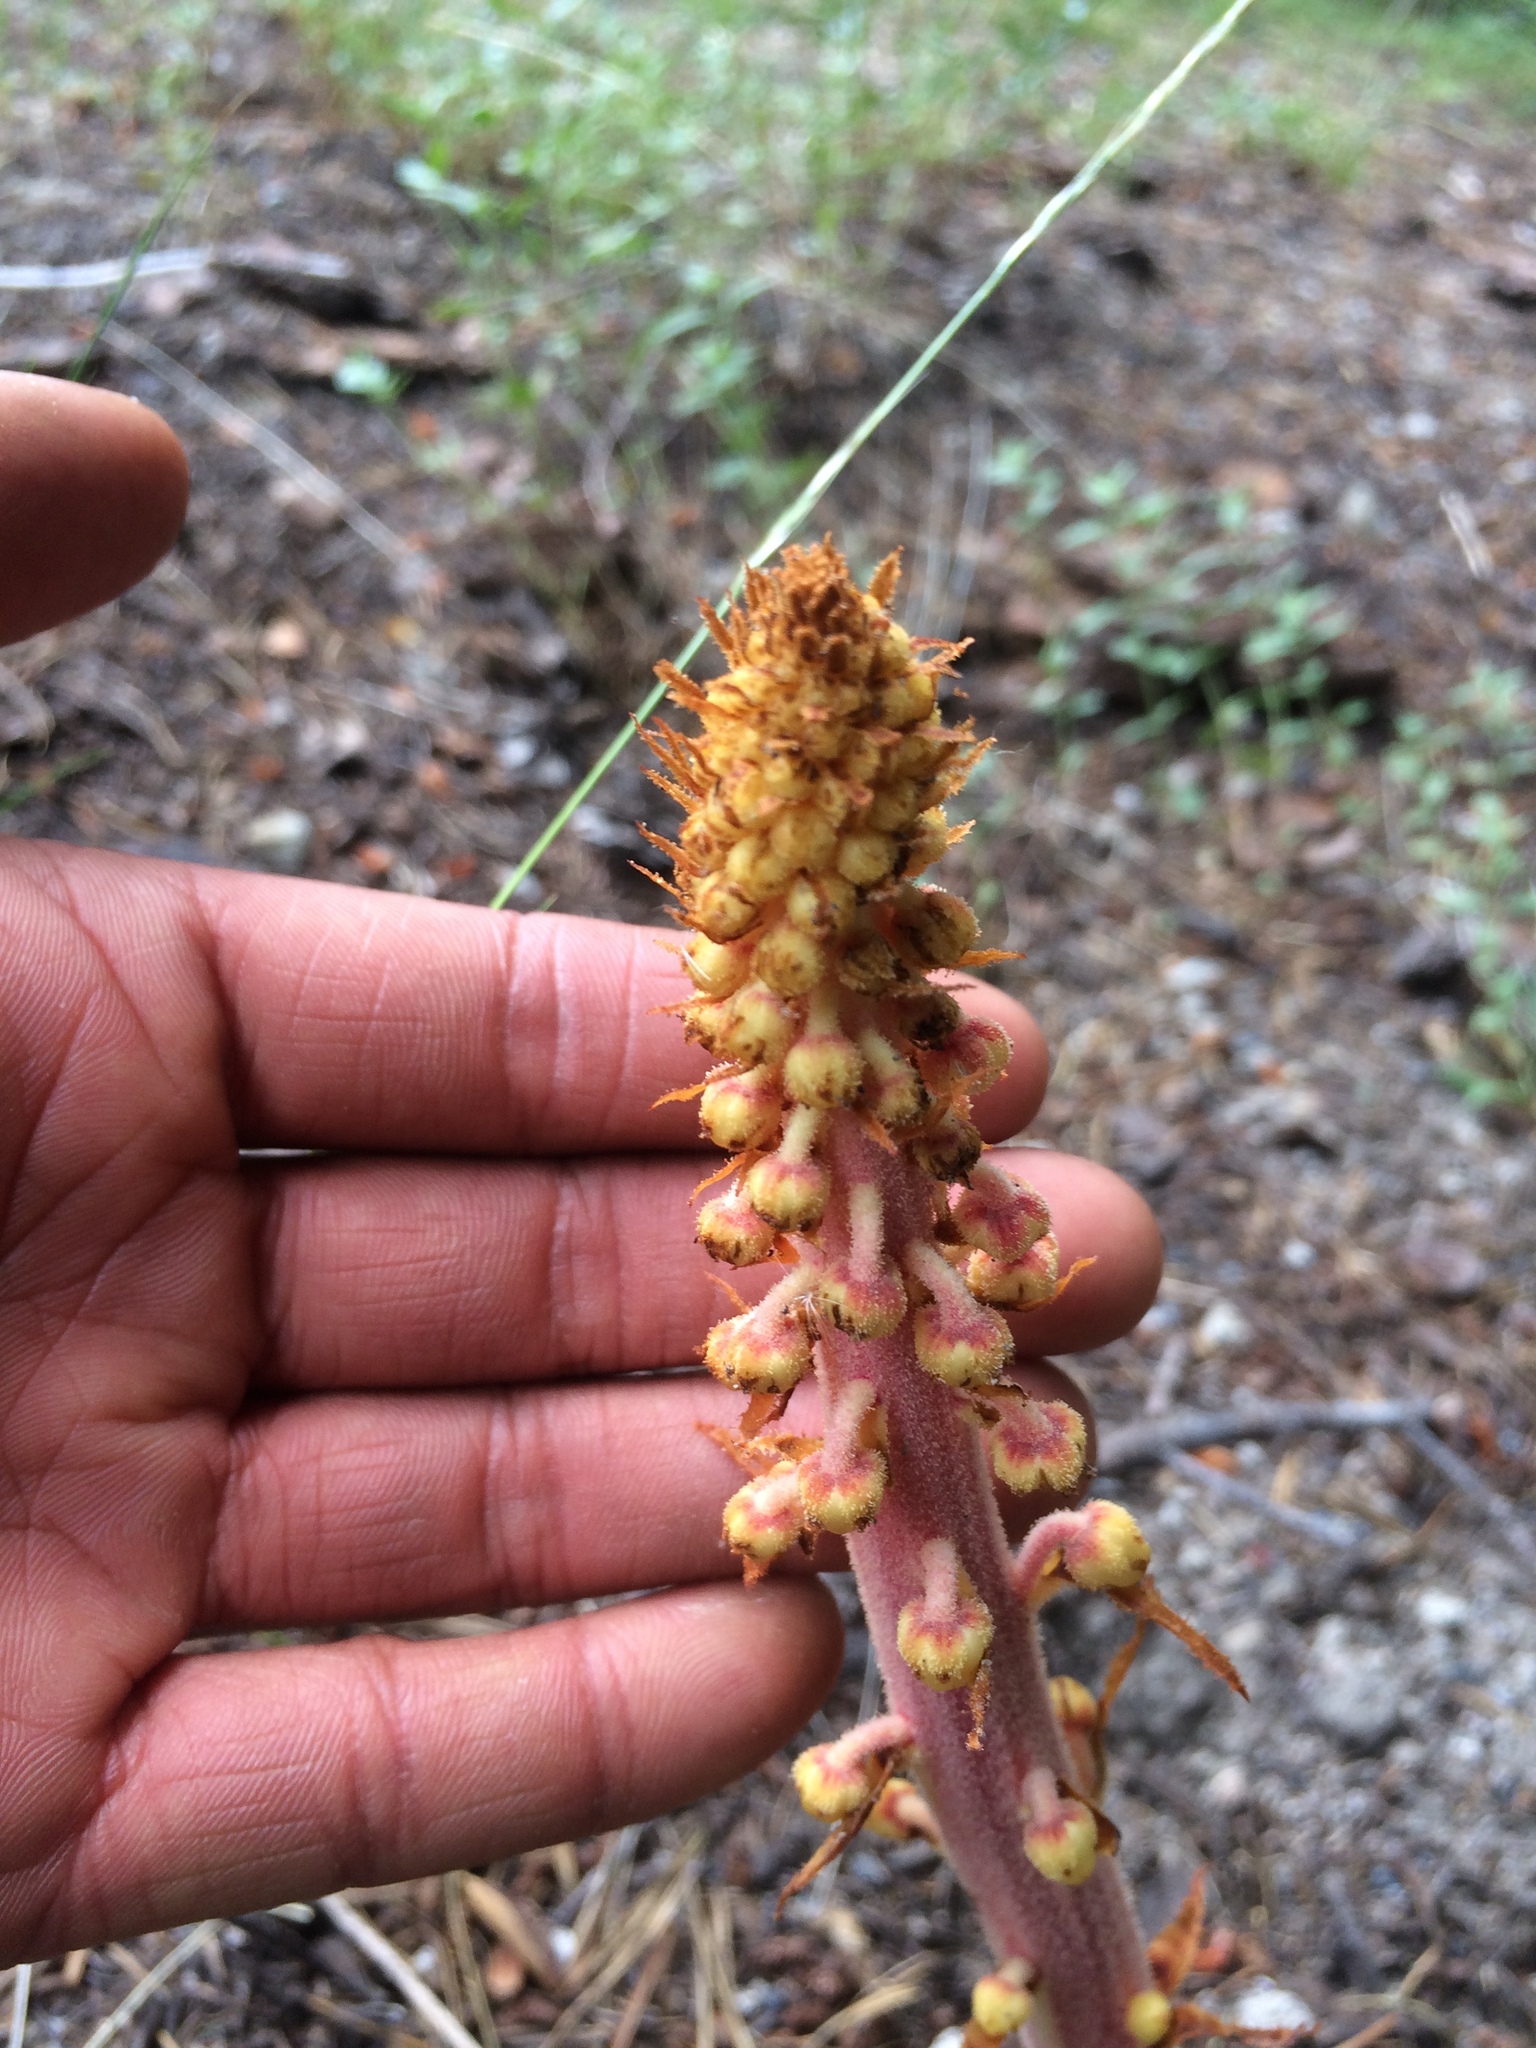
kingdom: Plantae
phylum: Tracheophyta
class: Magnoliopsida
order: Ericales
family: Ericaceae
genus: Pterospora
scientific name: Pterospora andromedea
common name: Giant bird's-nest
